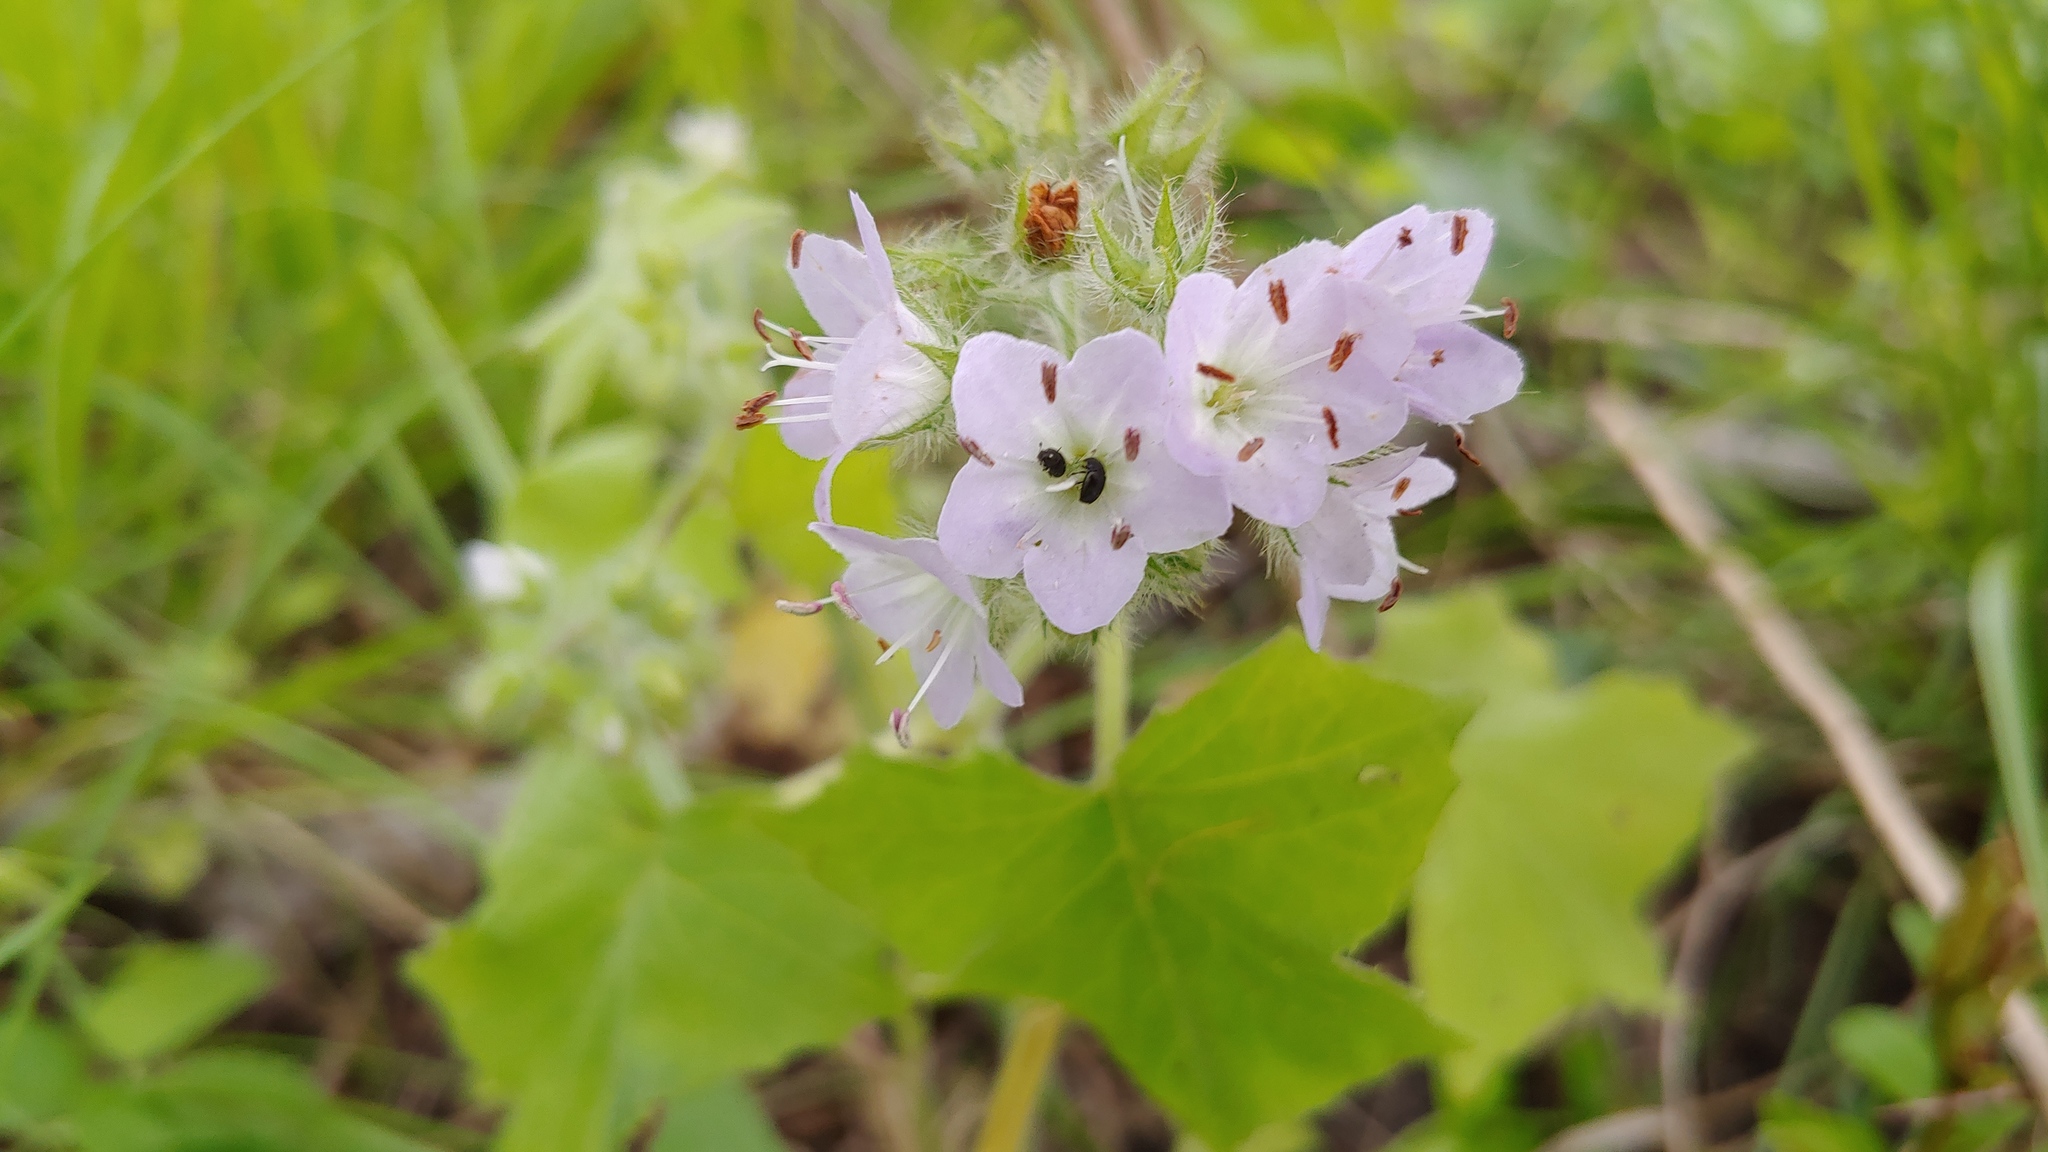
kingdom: Plantae
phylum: Tracheophyta
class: Magnoliopsida
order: Boraginales
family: Hydrophyllaceae
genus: Hydrophyllum
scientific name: Hydrophyllum appendiculatum
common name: Appendaged waterleaf
